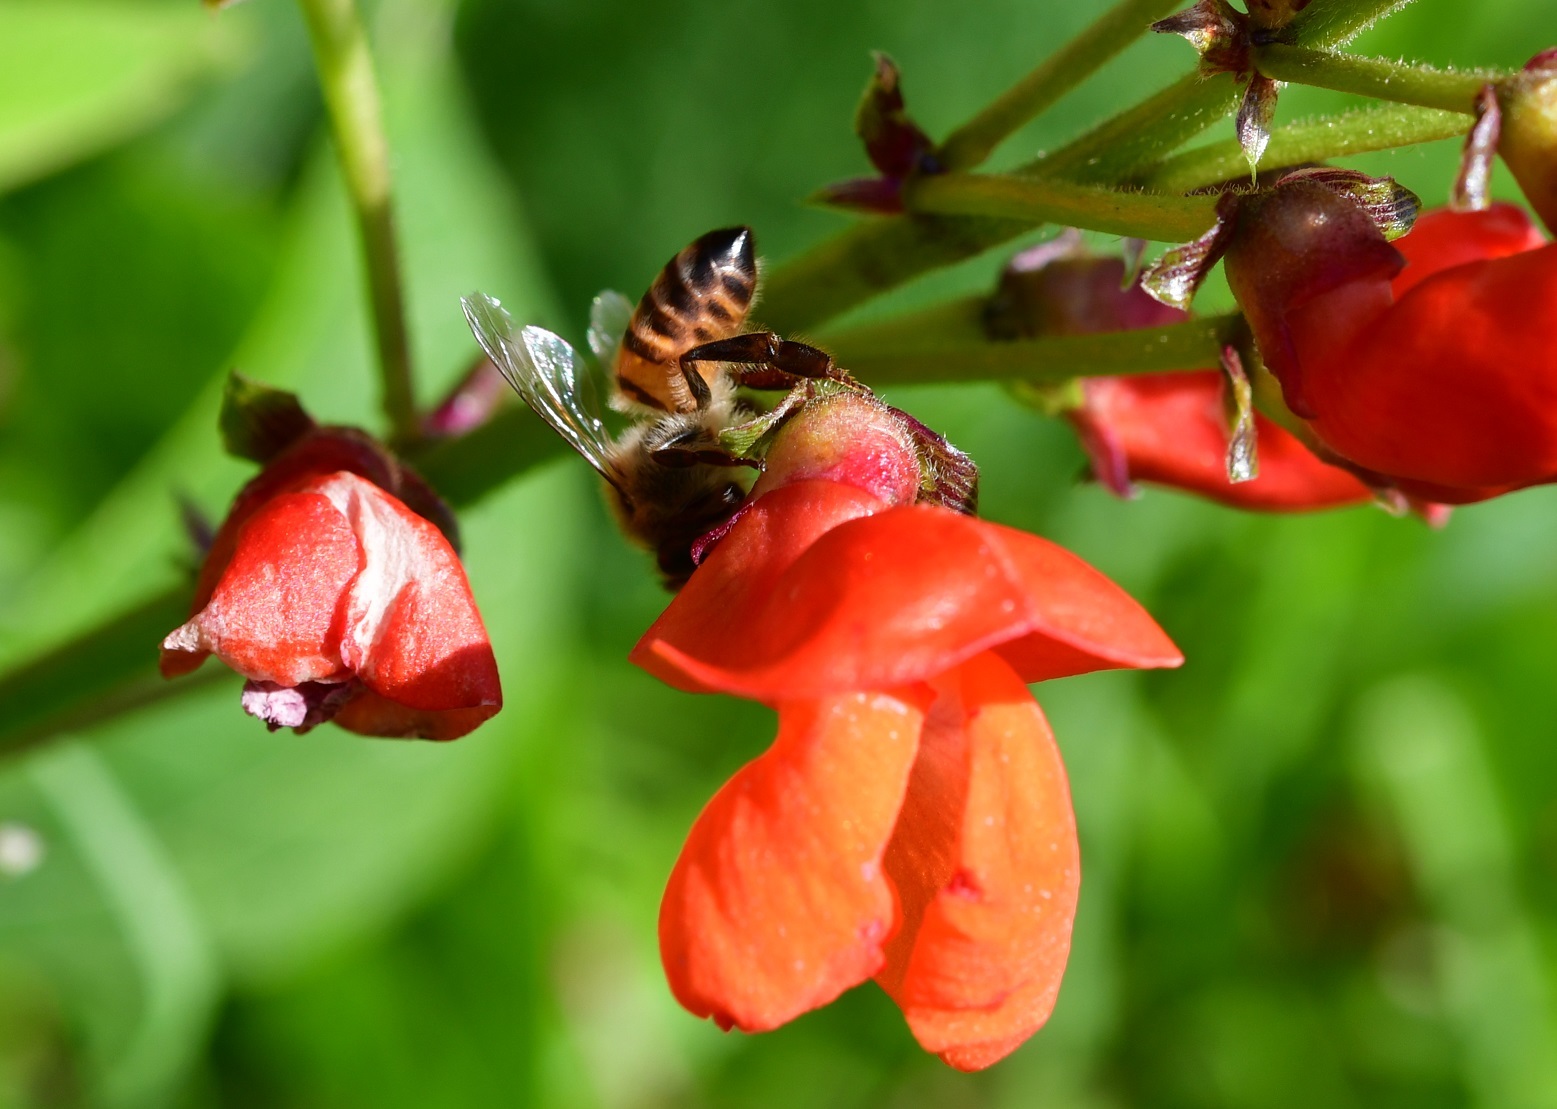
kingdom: Animalia
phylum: Arthropoda
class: Insecta
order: Hymenoptera
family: Apidae
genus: Apis
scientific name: Apis mellifera
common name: Honey bee
